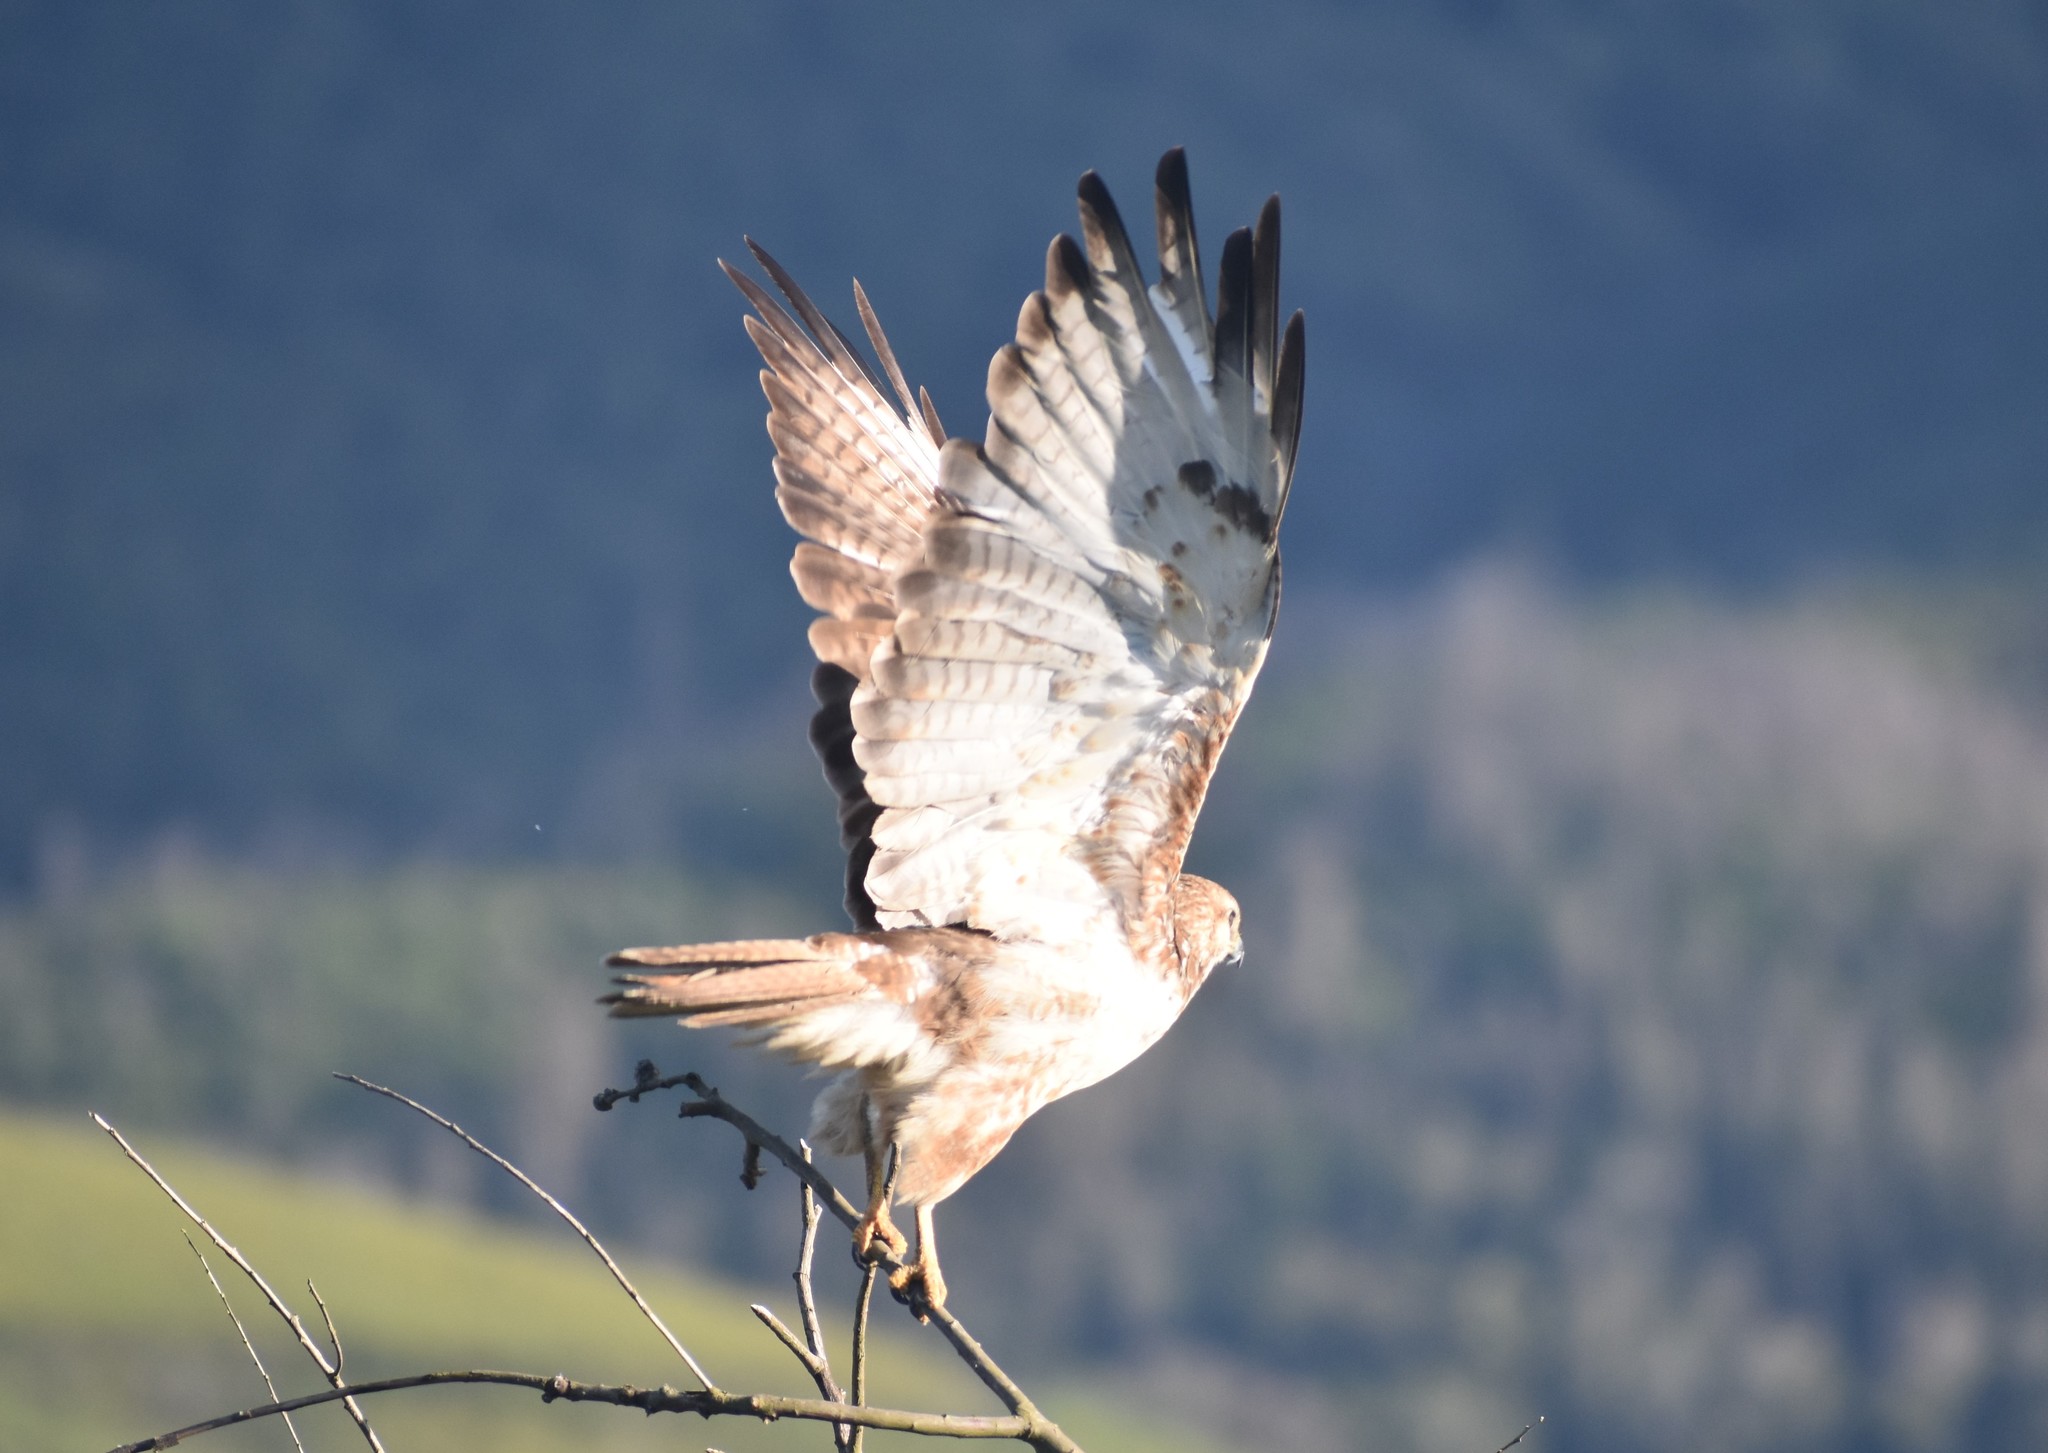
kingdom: Animalia
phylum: Chordata
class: Aves
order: Accipitriformes
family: Accipitridae
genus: Buteo
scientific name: Buteo buteo
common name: Common buzzard
